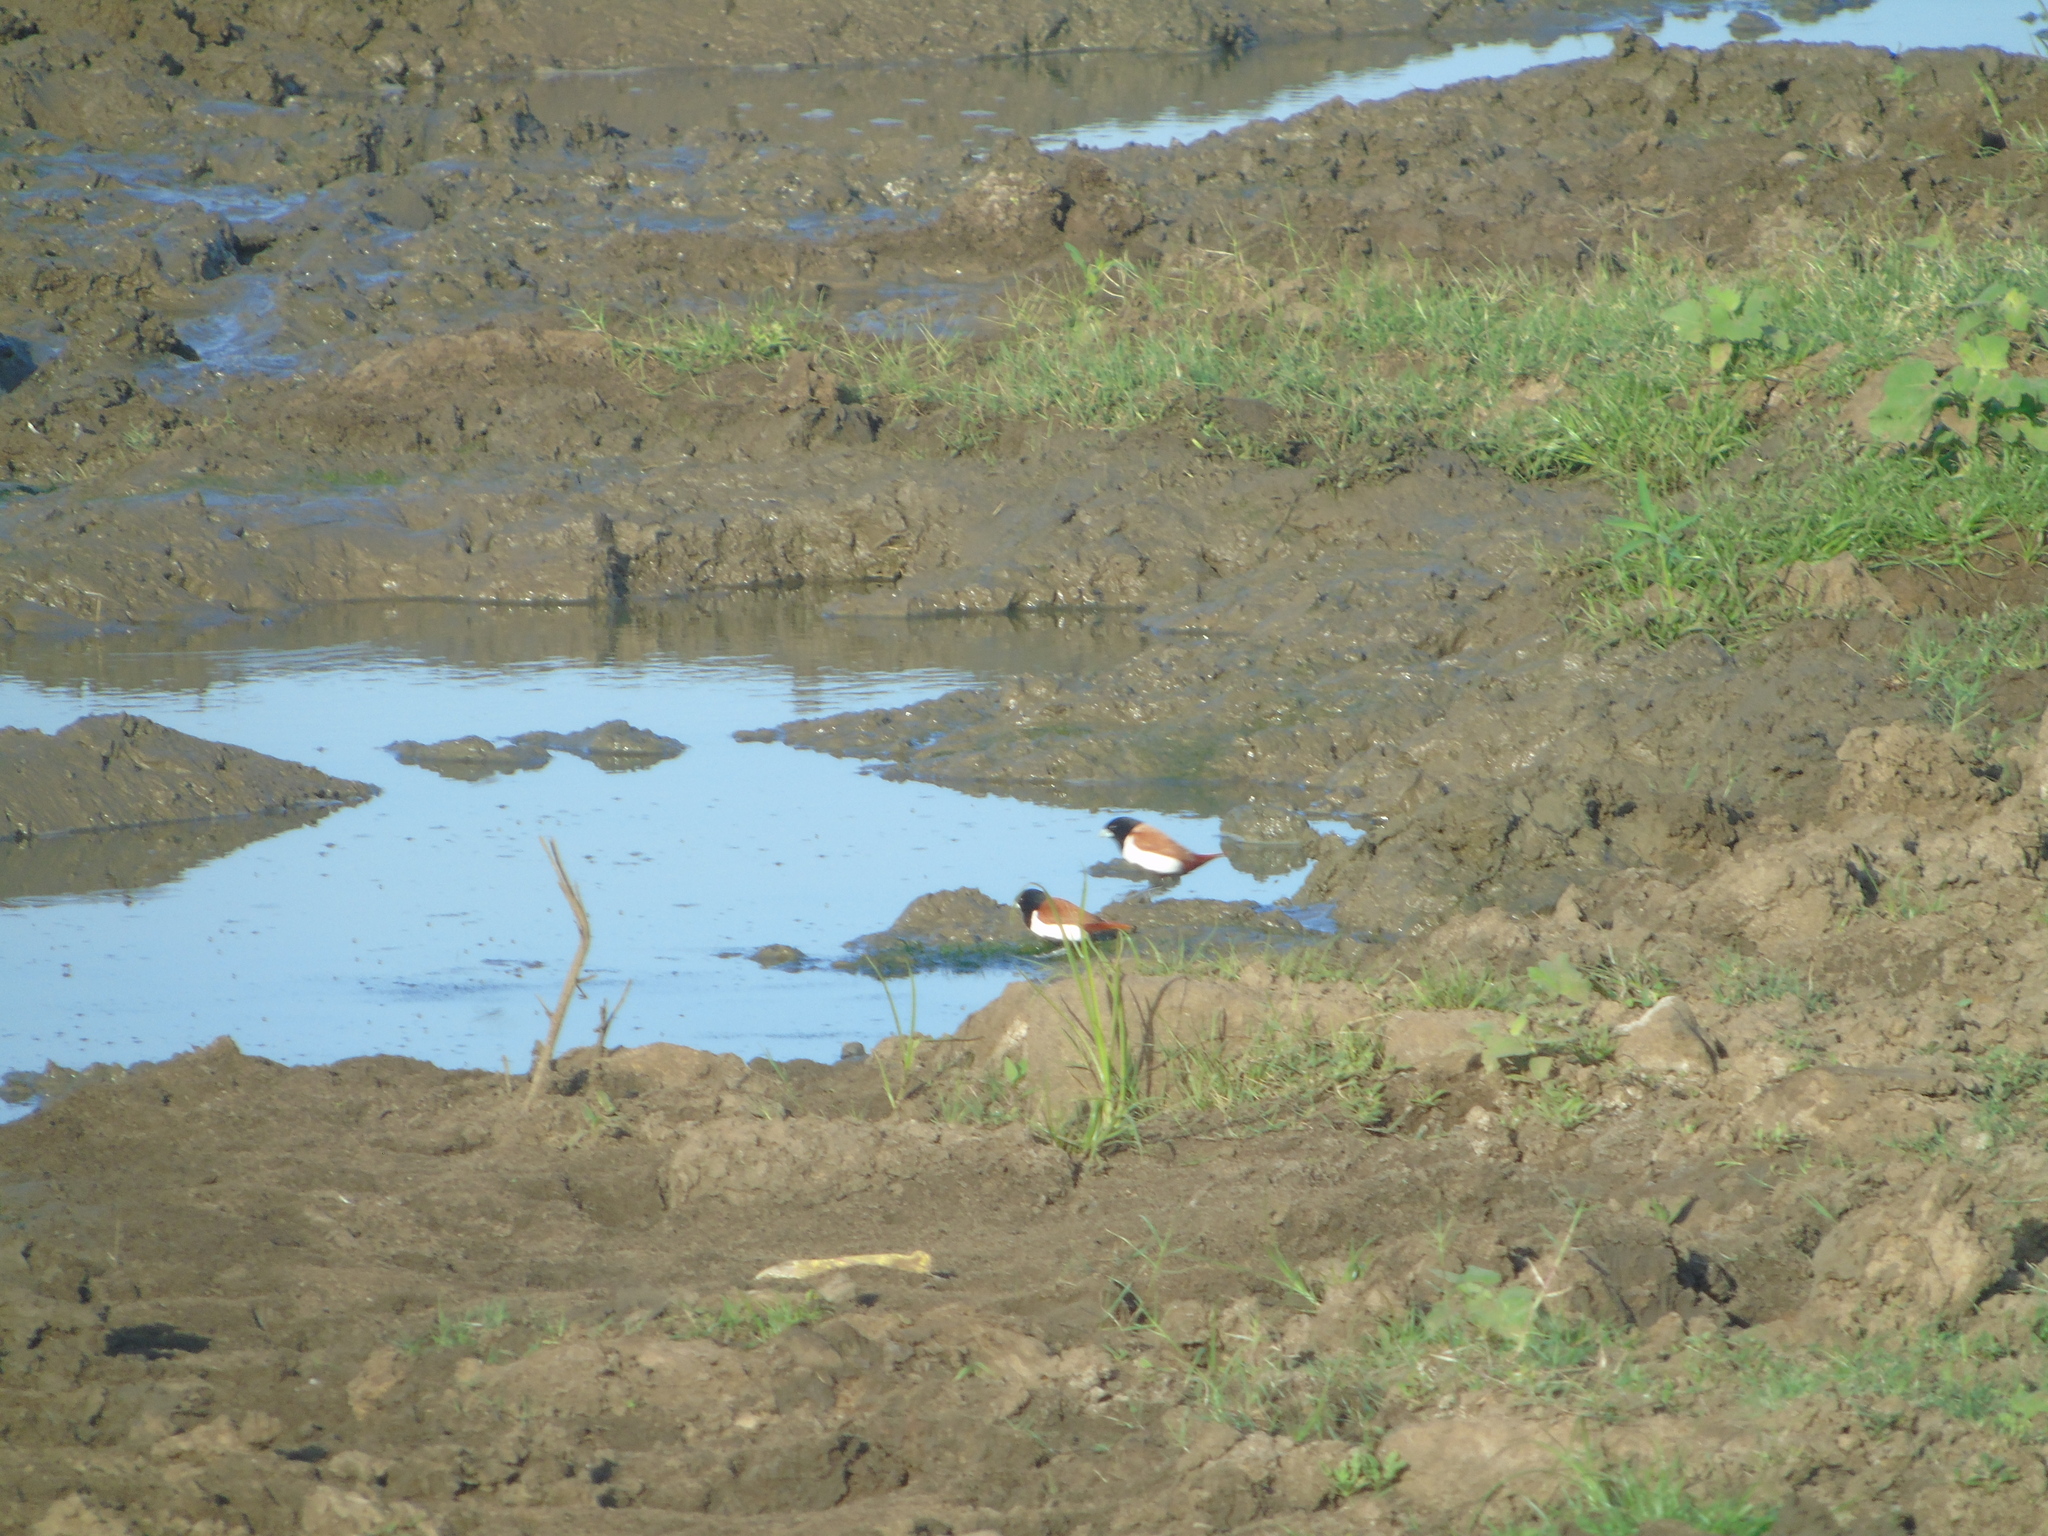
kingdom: Animalia
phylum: Chordata
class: Aves
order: Passeriformes
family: Estrildidae
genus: Lonchura
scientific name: Lonchura malacca
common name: Tricolored munia
